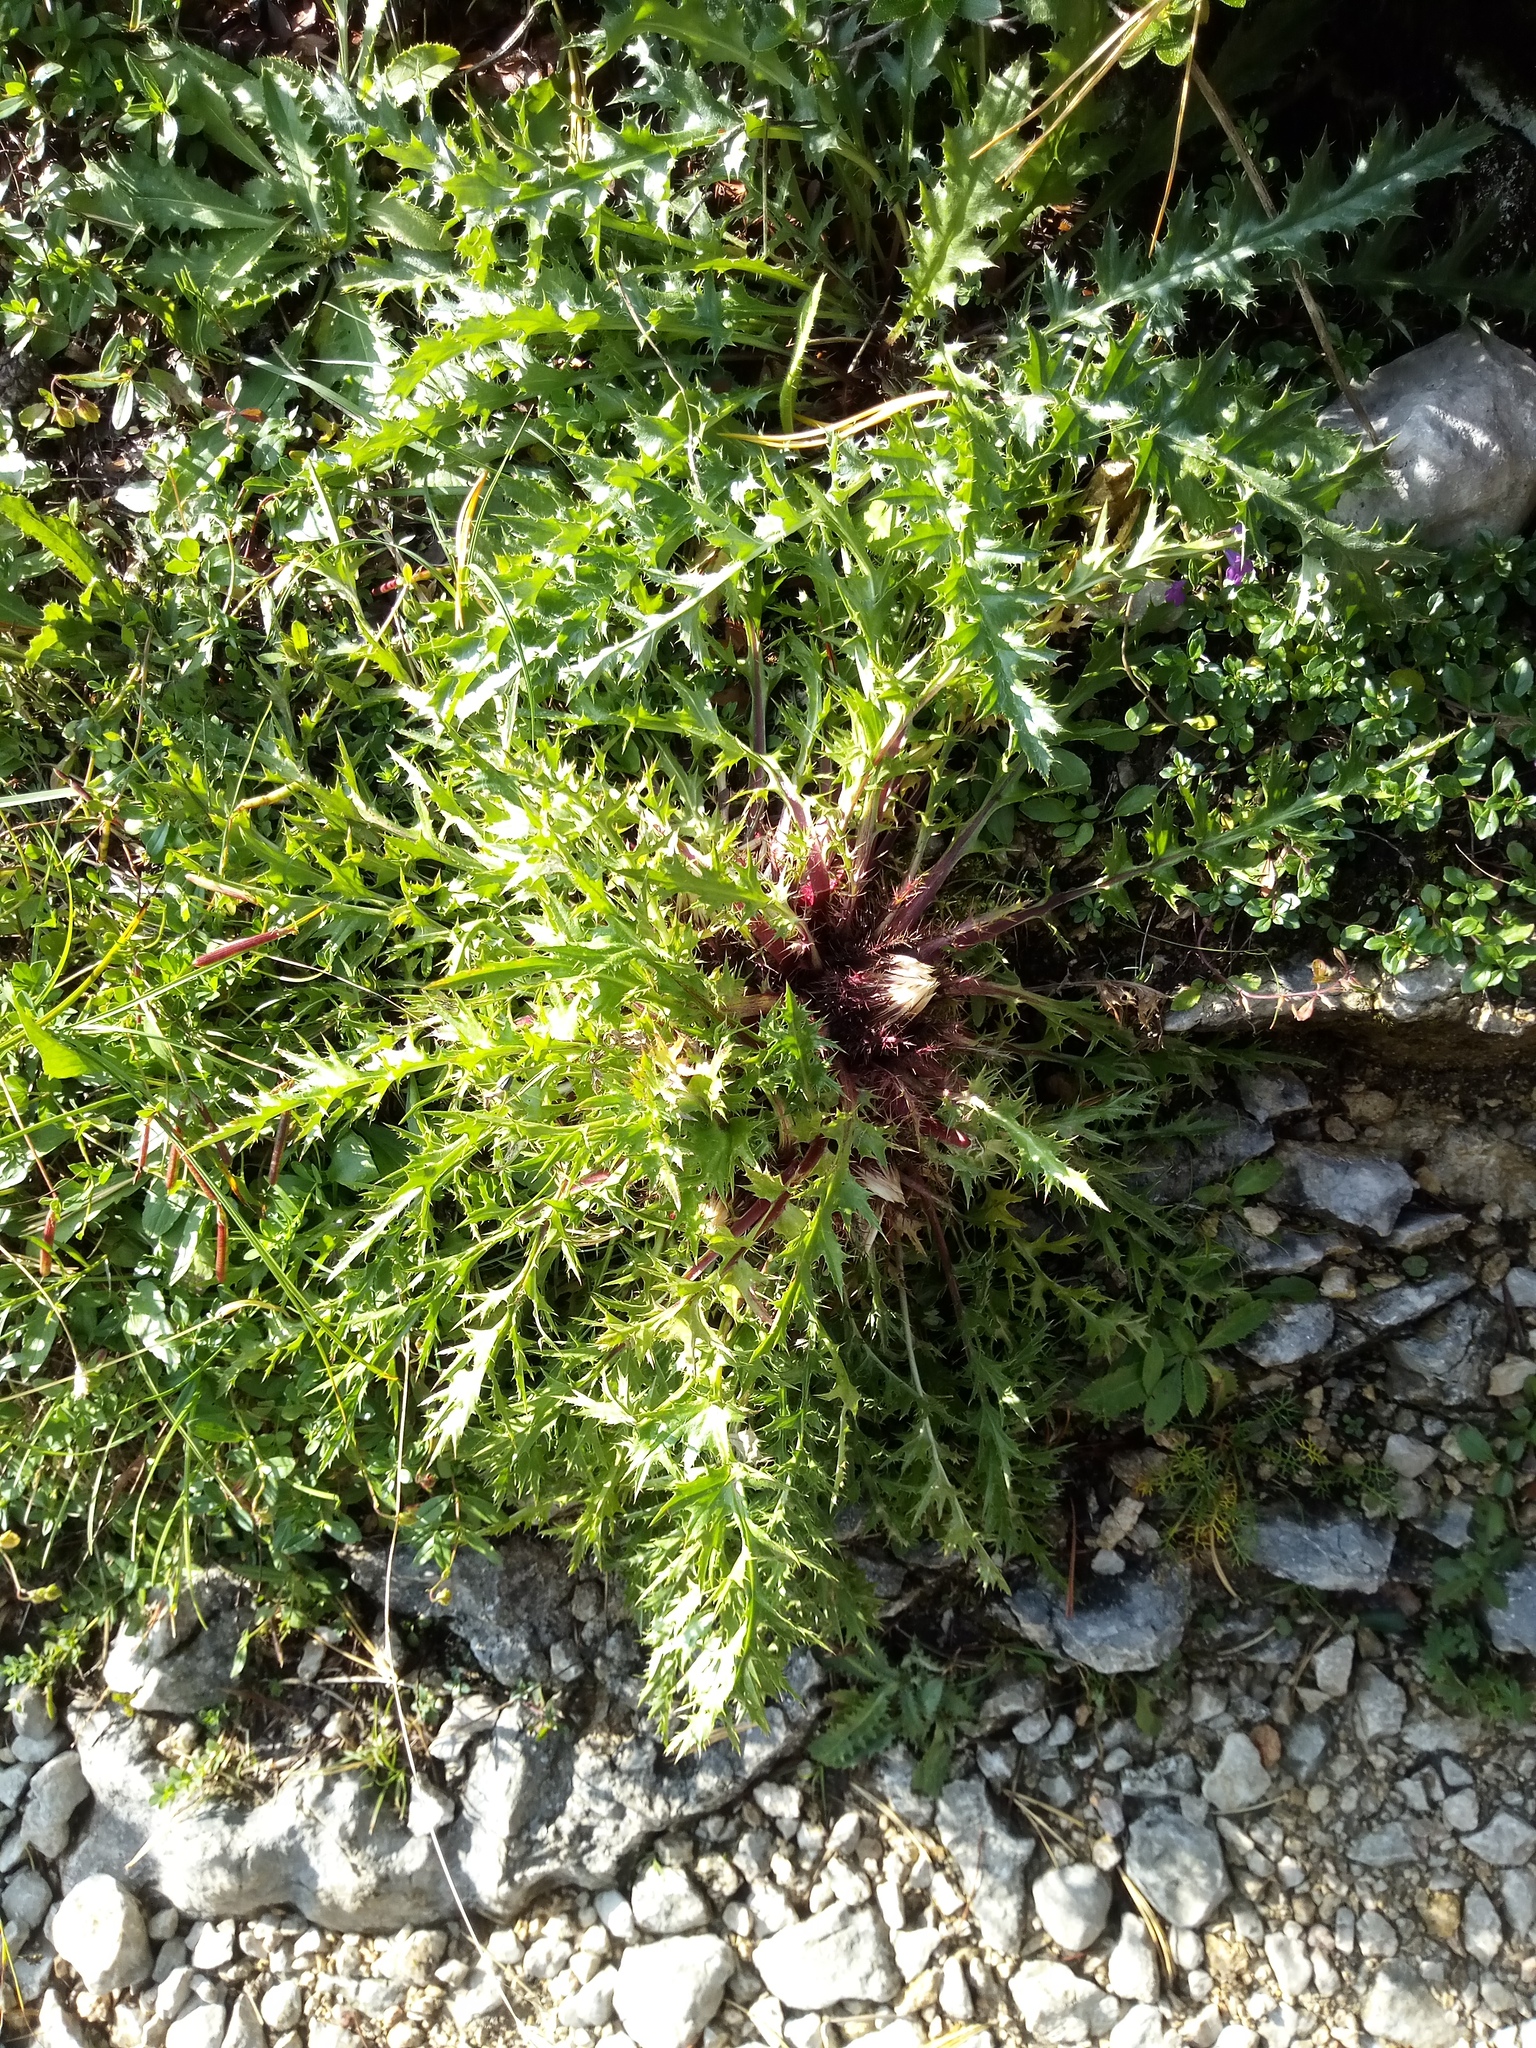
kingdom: Plantae
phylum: Tracheophyta
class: Magnoliopsida
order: Asterales
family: Asteraceae
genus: Carlina
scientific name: Carlina acaulis
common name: Stemless carline thistle
